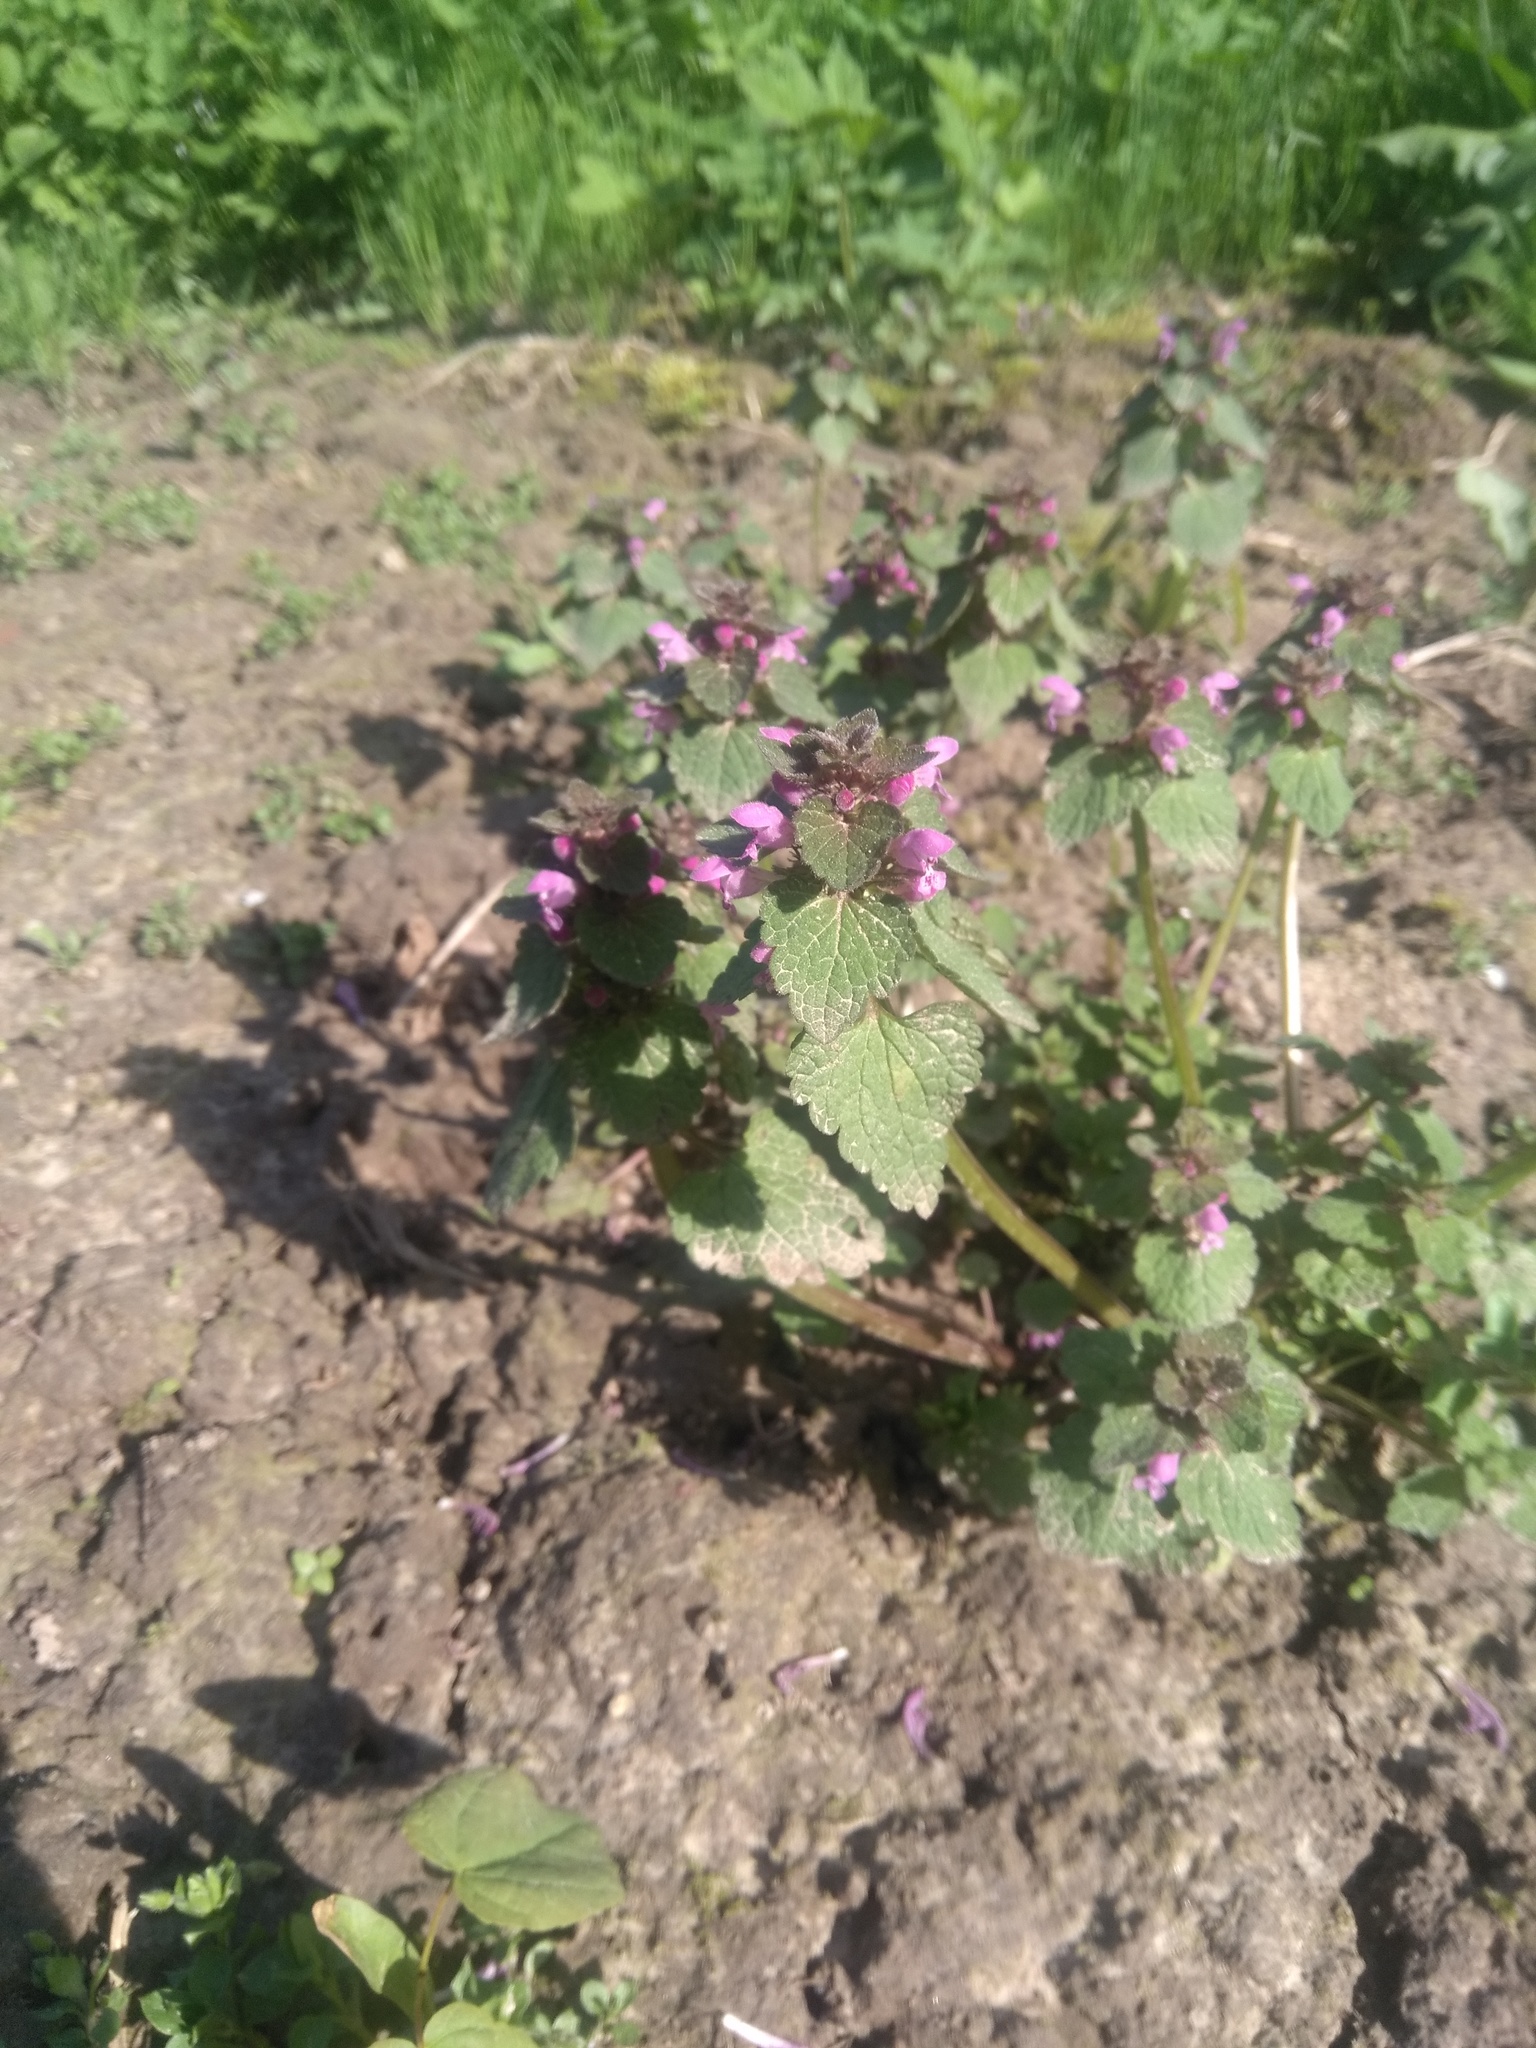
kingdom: Plantae
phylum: Tracheophyta
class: Magnoliopsida
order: Lamiales
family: Lamiaceae
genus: Lamium
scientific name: Lamium purpureum
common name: Red dead-nettle
